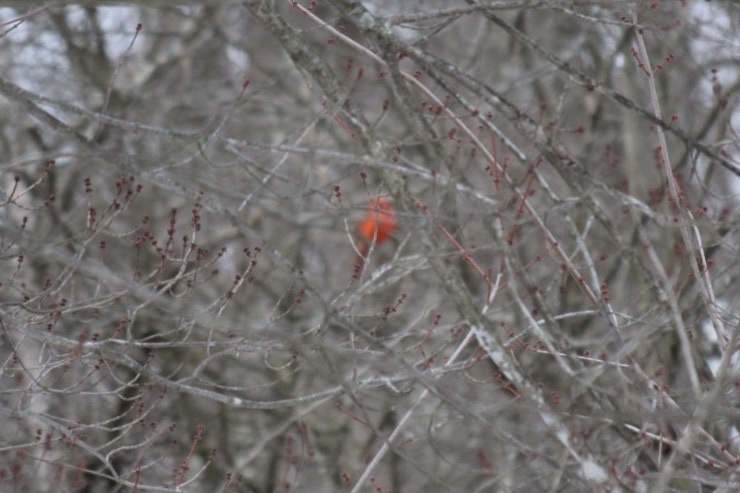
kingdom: Animalia
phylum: Chordata
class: Aves
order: Passeriformes
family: Cardinalidae
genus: Cardinalis
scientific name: Cardinalis cardinalis
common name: Northern cardinal
